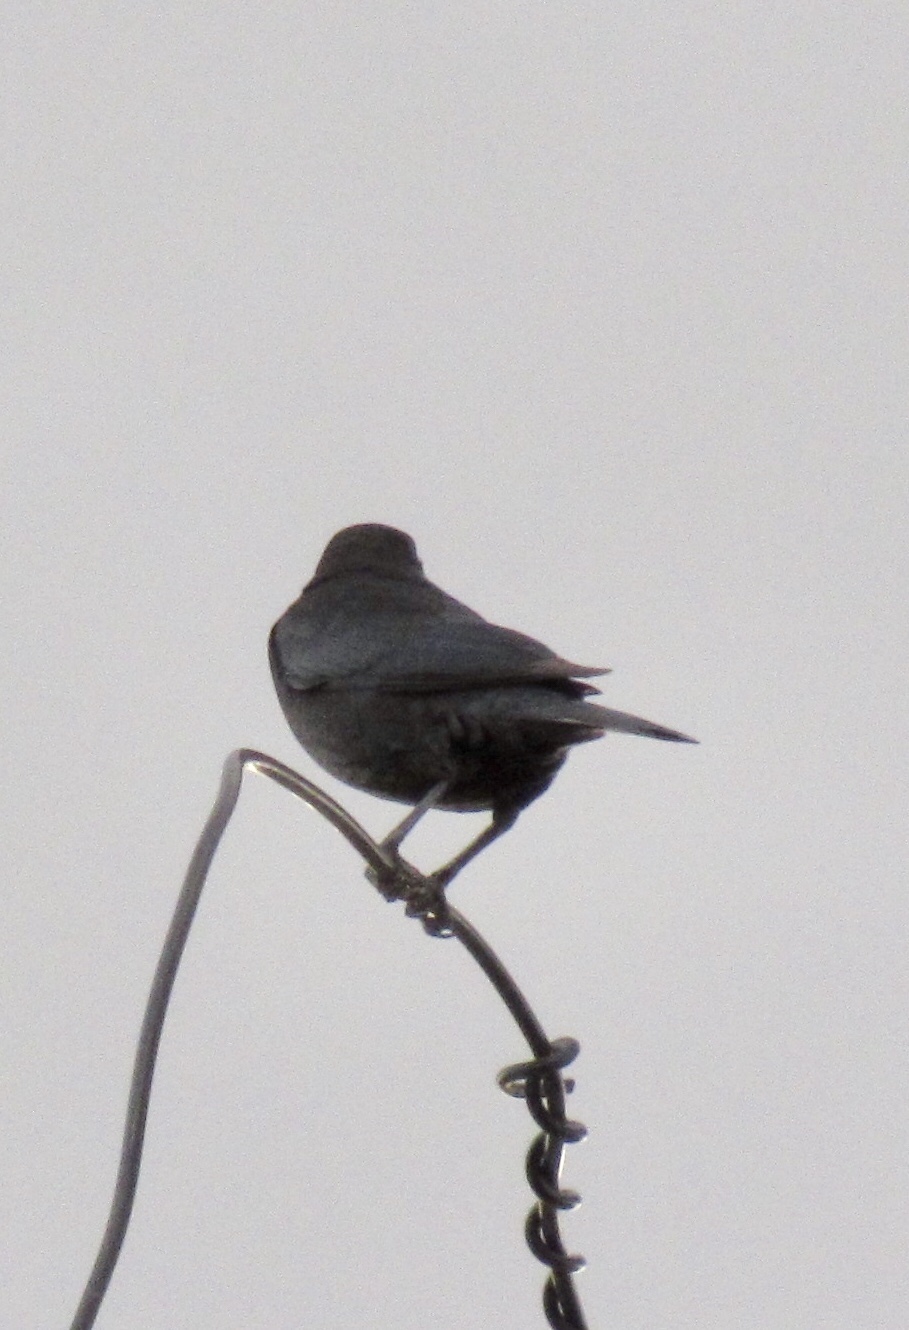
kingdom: Animalia
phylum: Chordata
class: Aves
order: Passeriformes
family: Icteridae
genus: Euphagus
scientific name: Euphagus cyanocephalus
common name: Brewer's blackbird
